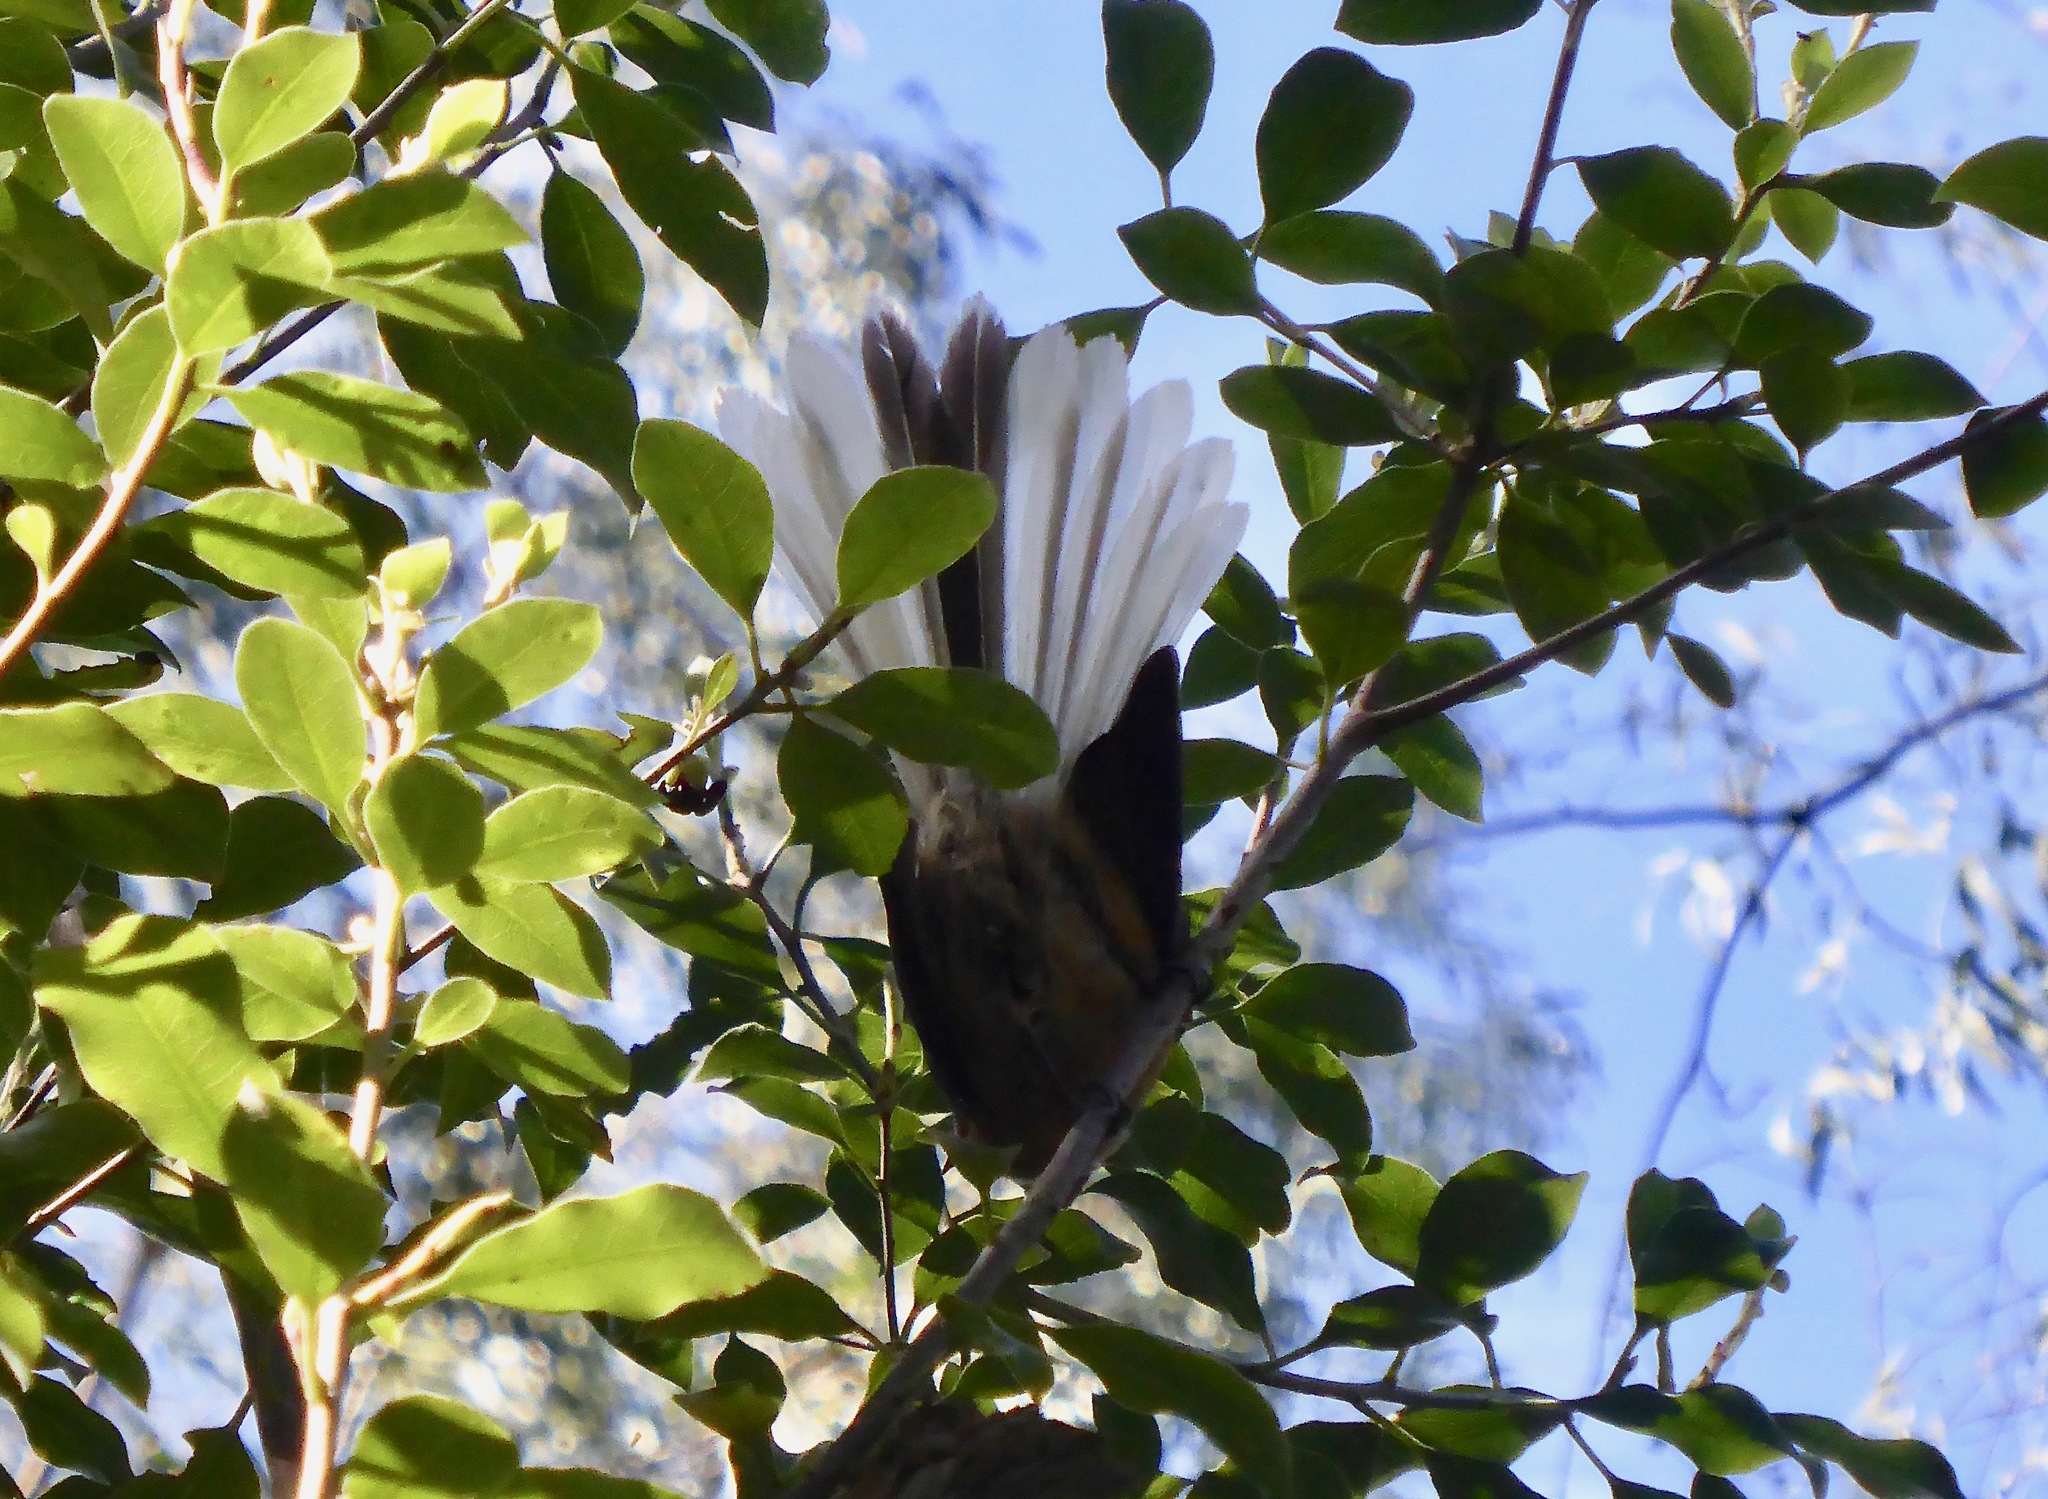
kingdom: Animalia
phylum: Chordata
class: Aves
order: Passeriformes
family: Rhipiduridae
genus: Rhipidura
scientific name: Rhipidura fuliginosa
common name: New zealand fantail
